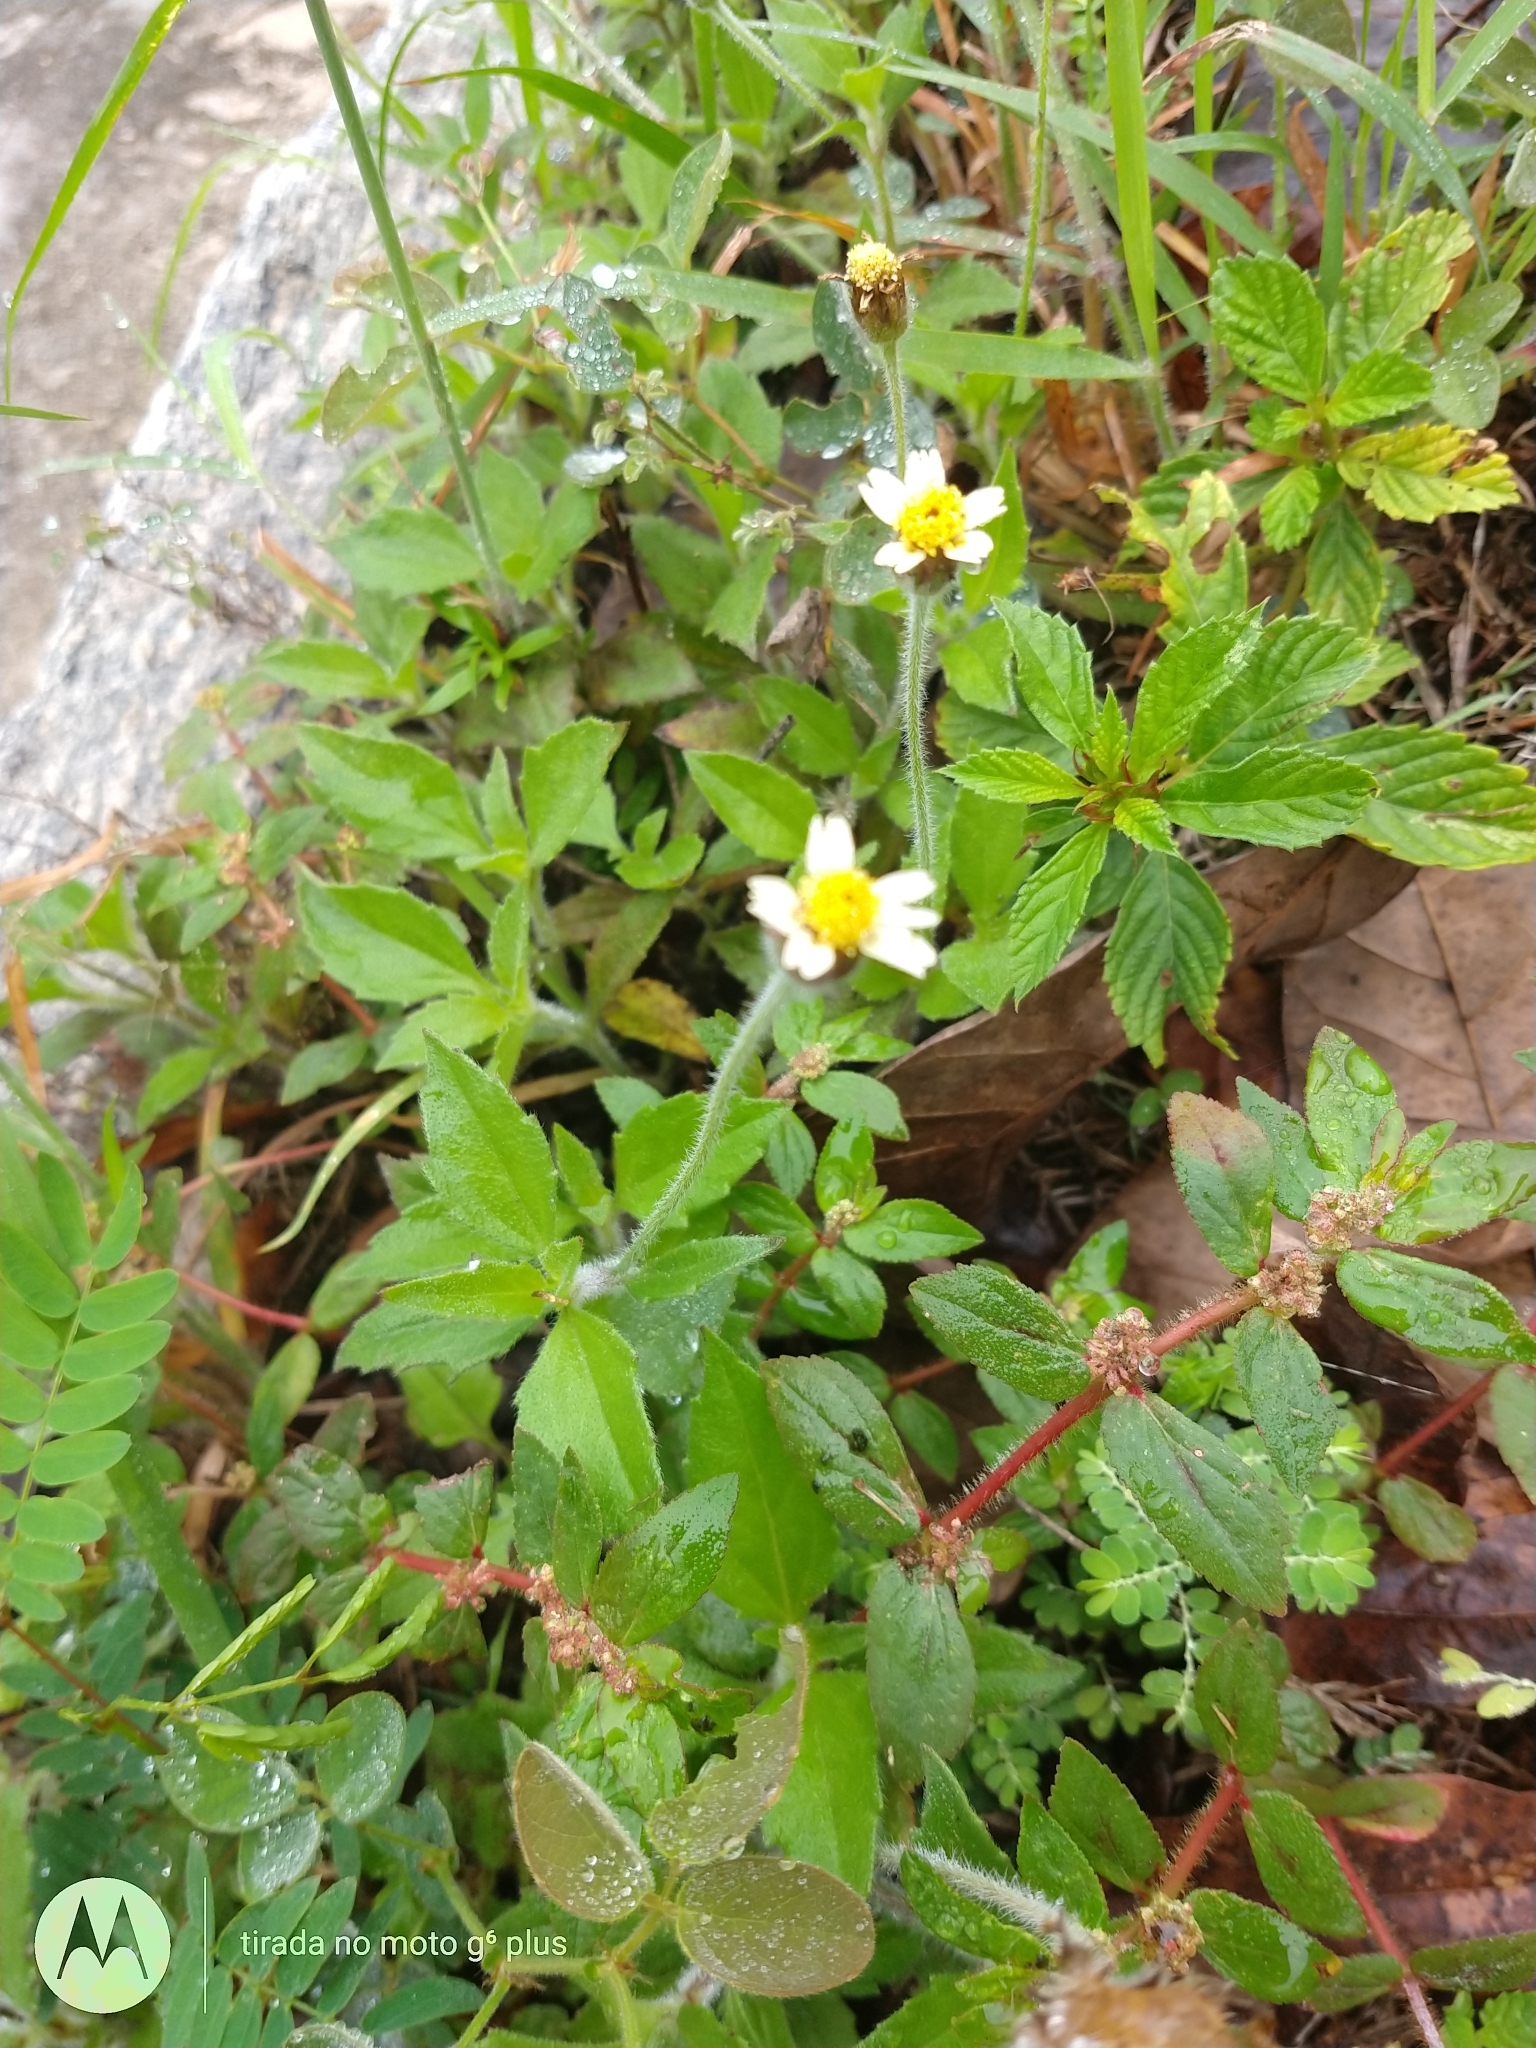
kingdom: Plantae
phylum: Tracheophyta
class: Magnoliopsida
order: Asterales
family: Asteraceae
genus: Tridax
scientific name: Tridax procumbens
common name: Coatbuttons
